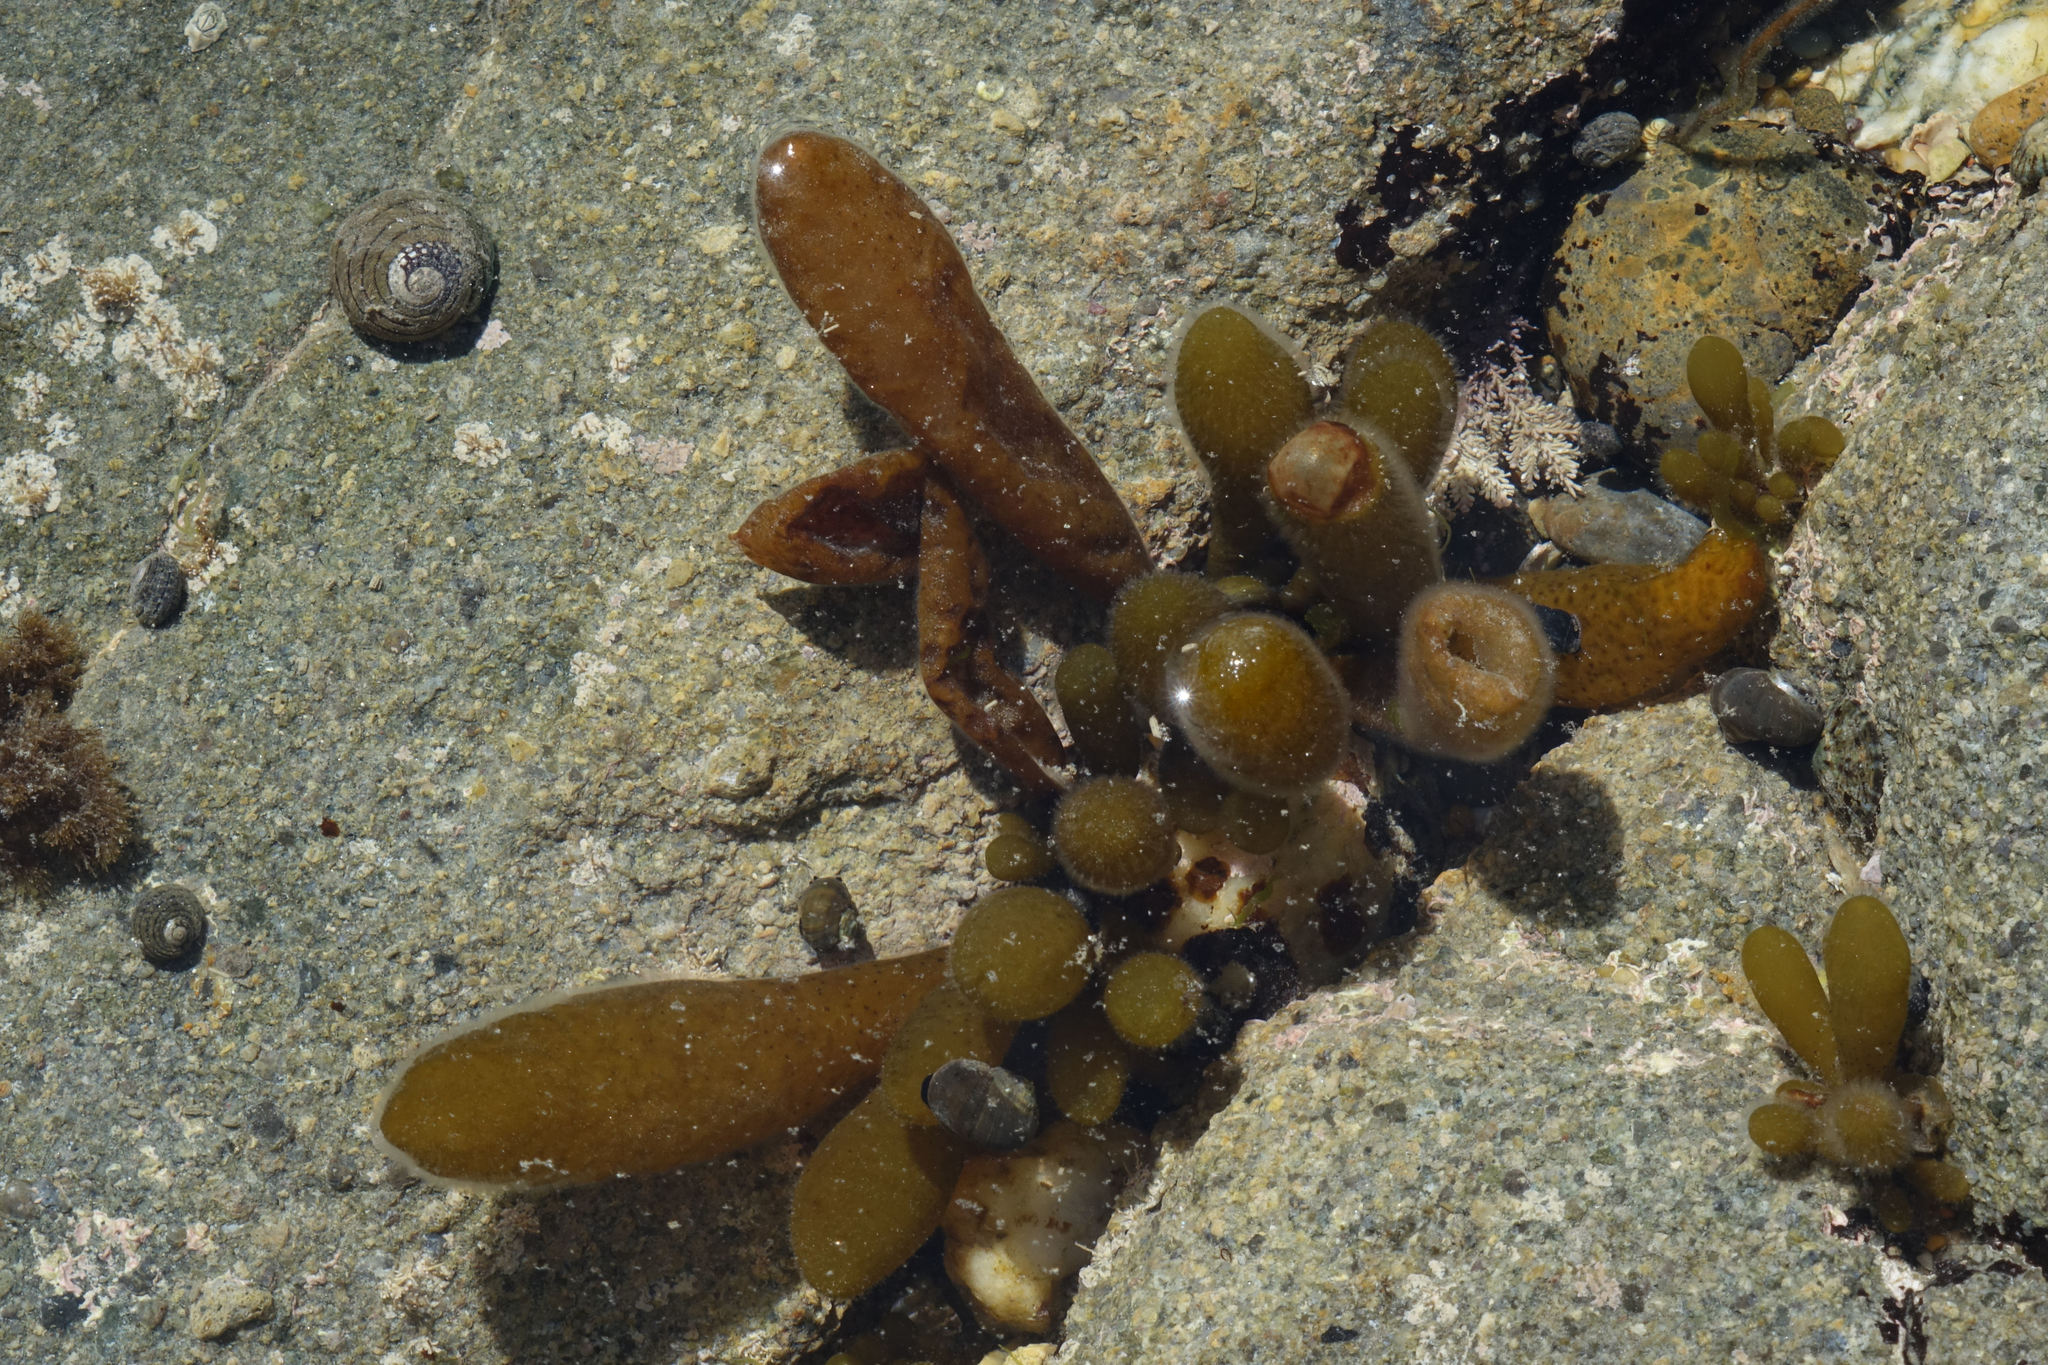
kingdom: Chromista
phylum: Ochrophyta
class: Phaeophyceae
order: Ectocarpales
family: Adenocystaceae
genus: Adenocystis
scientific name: Adenocystis utricularis
